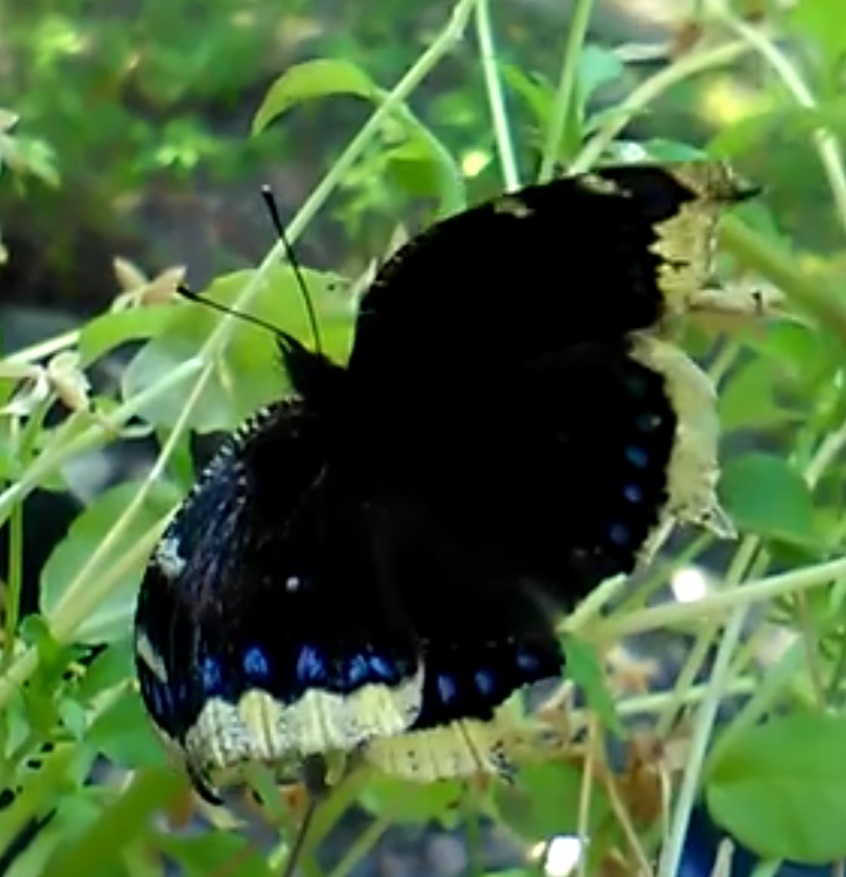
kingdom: Animalia
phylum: Arthropoda
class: Insecta
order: Lepidoptera
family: Nymphalidae
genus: Nymphalis
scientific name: Nymphalis antiopa
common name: Camberwell beauty
